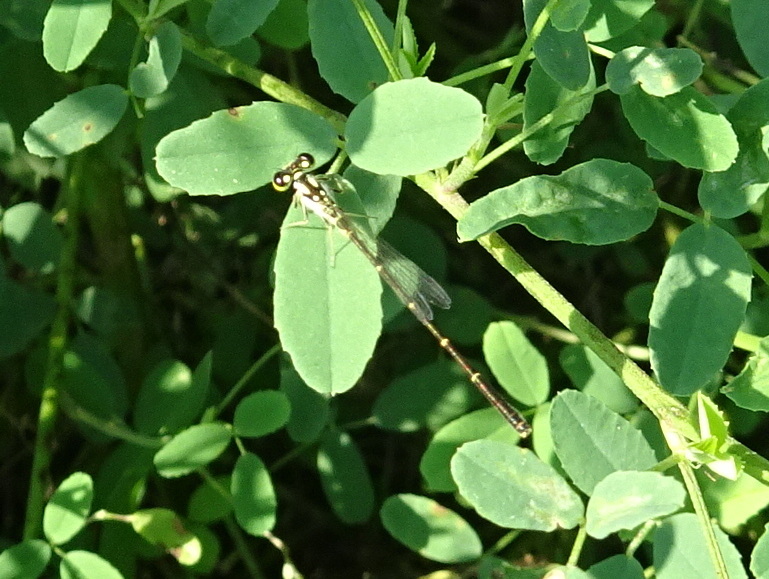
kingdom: Animalia
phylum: Arthropoda
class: Insecta
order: Odonata
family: Coenagrionidae
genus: Ischnura
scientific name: Ischnura posita
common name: Fragile forktail
